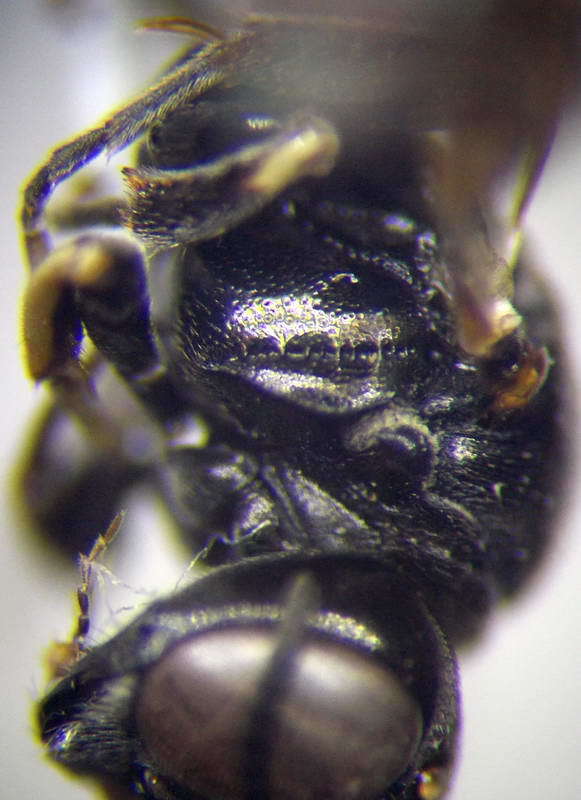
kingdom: Animalia
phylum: Arthropoda
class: Insecta
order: Hymenoptera
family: Crabronidae
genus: Lindenius
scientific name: Lindenius albilabris
